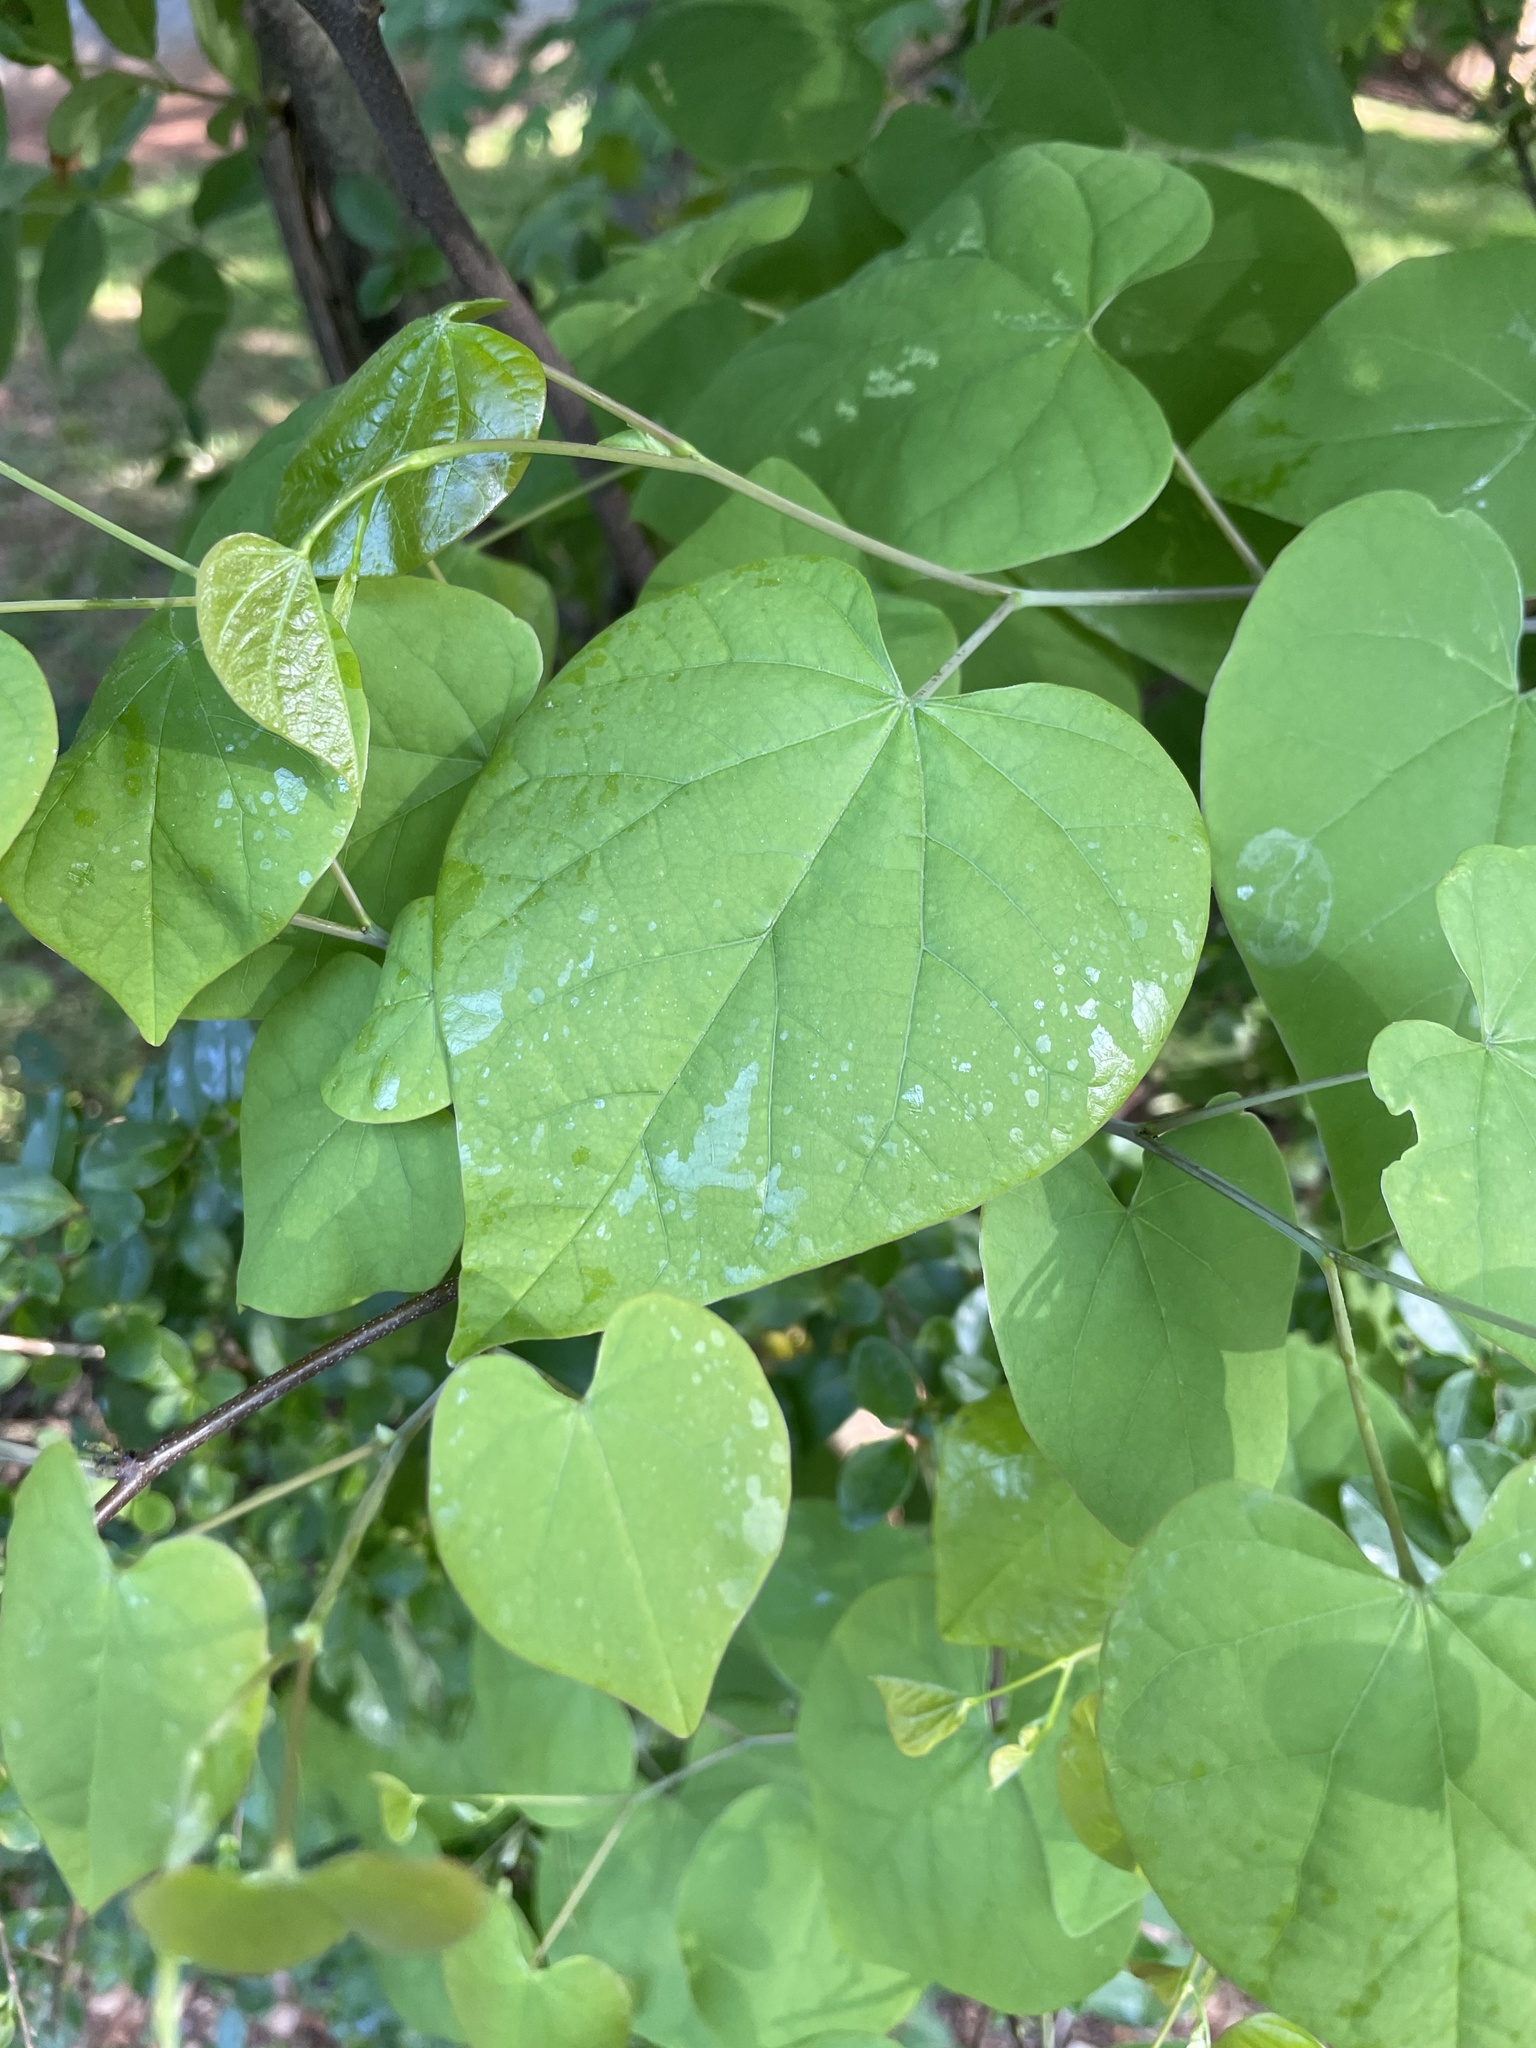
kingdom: Plantae
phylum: Tracheophyta
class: Magnoliopsida
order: Fabales
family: Fabaceae
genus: Cercis
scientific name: Cercis canadensis
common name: Eastern redbud
